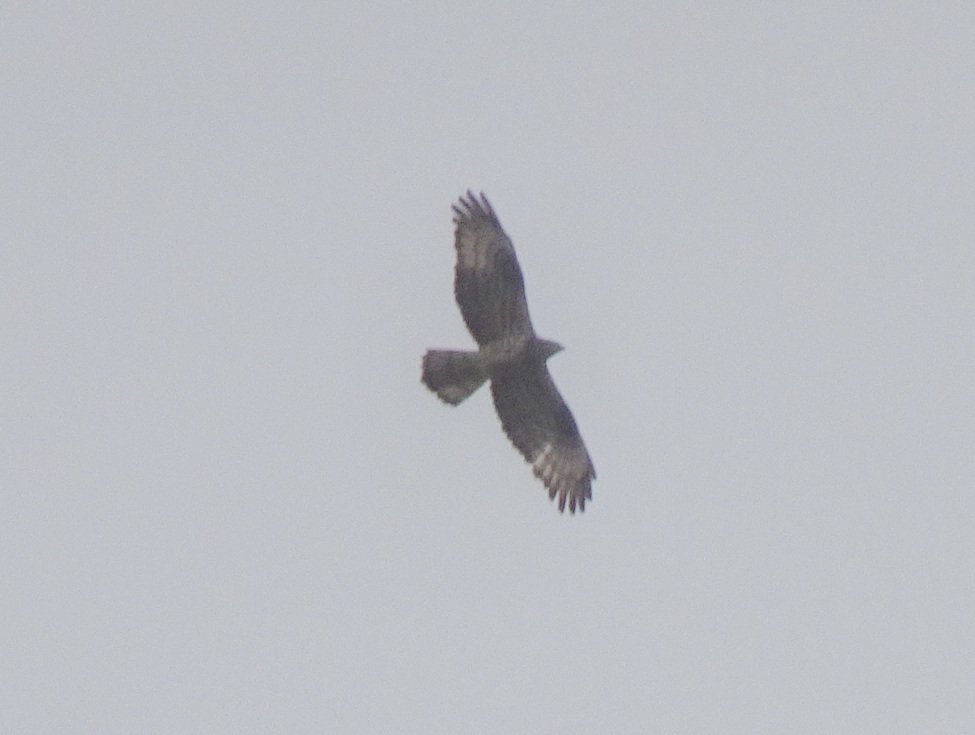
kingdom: Animalia
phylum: Chordata
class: Aves
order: Accipitriformes
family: Accipitridae
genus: Pernis
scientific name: Pernis apivorus
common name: European honey buzzard
